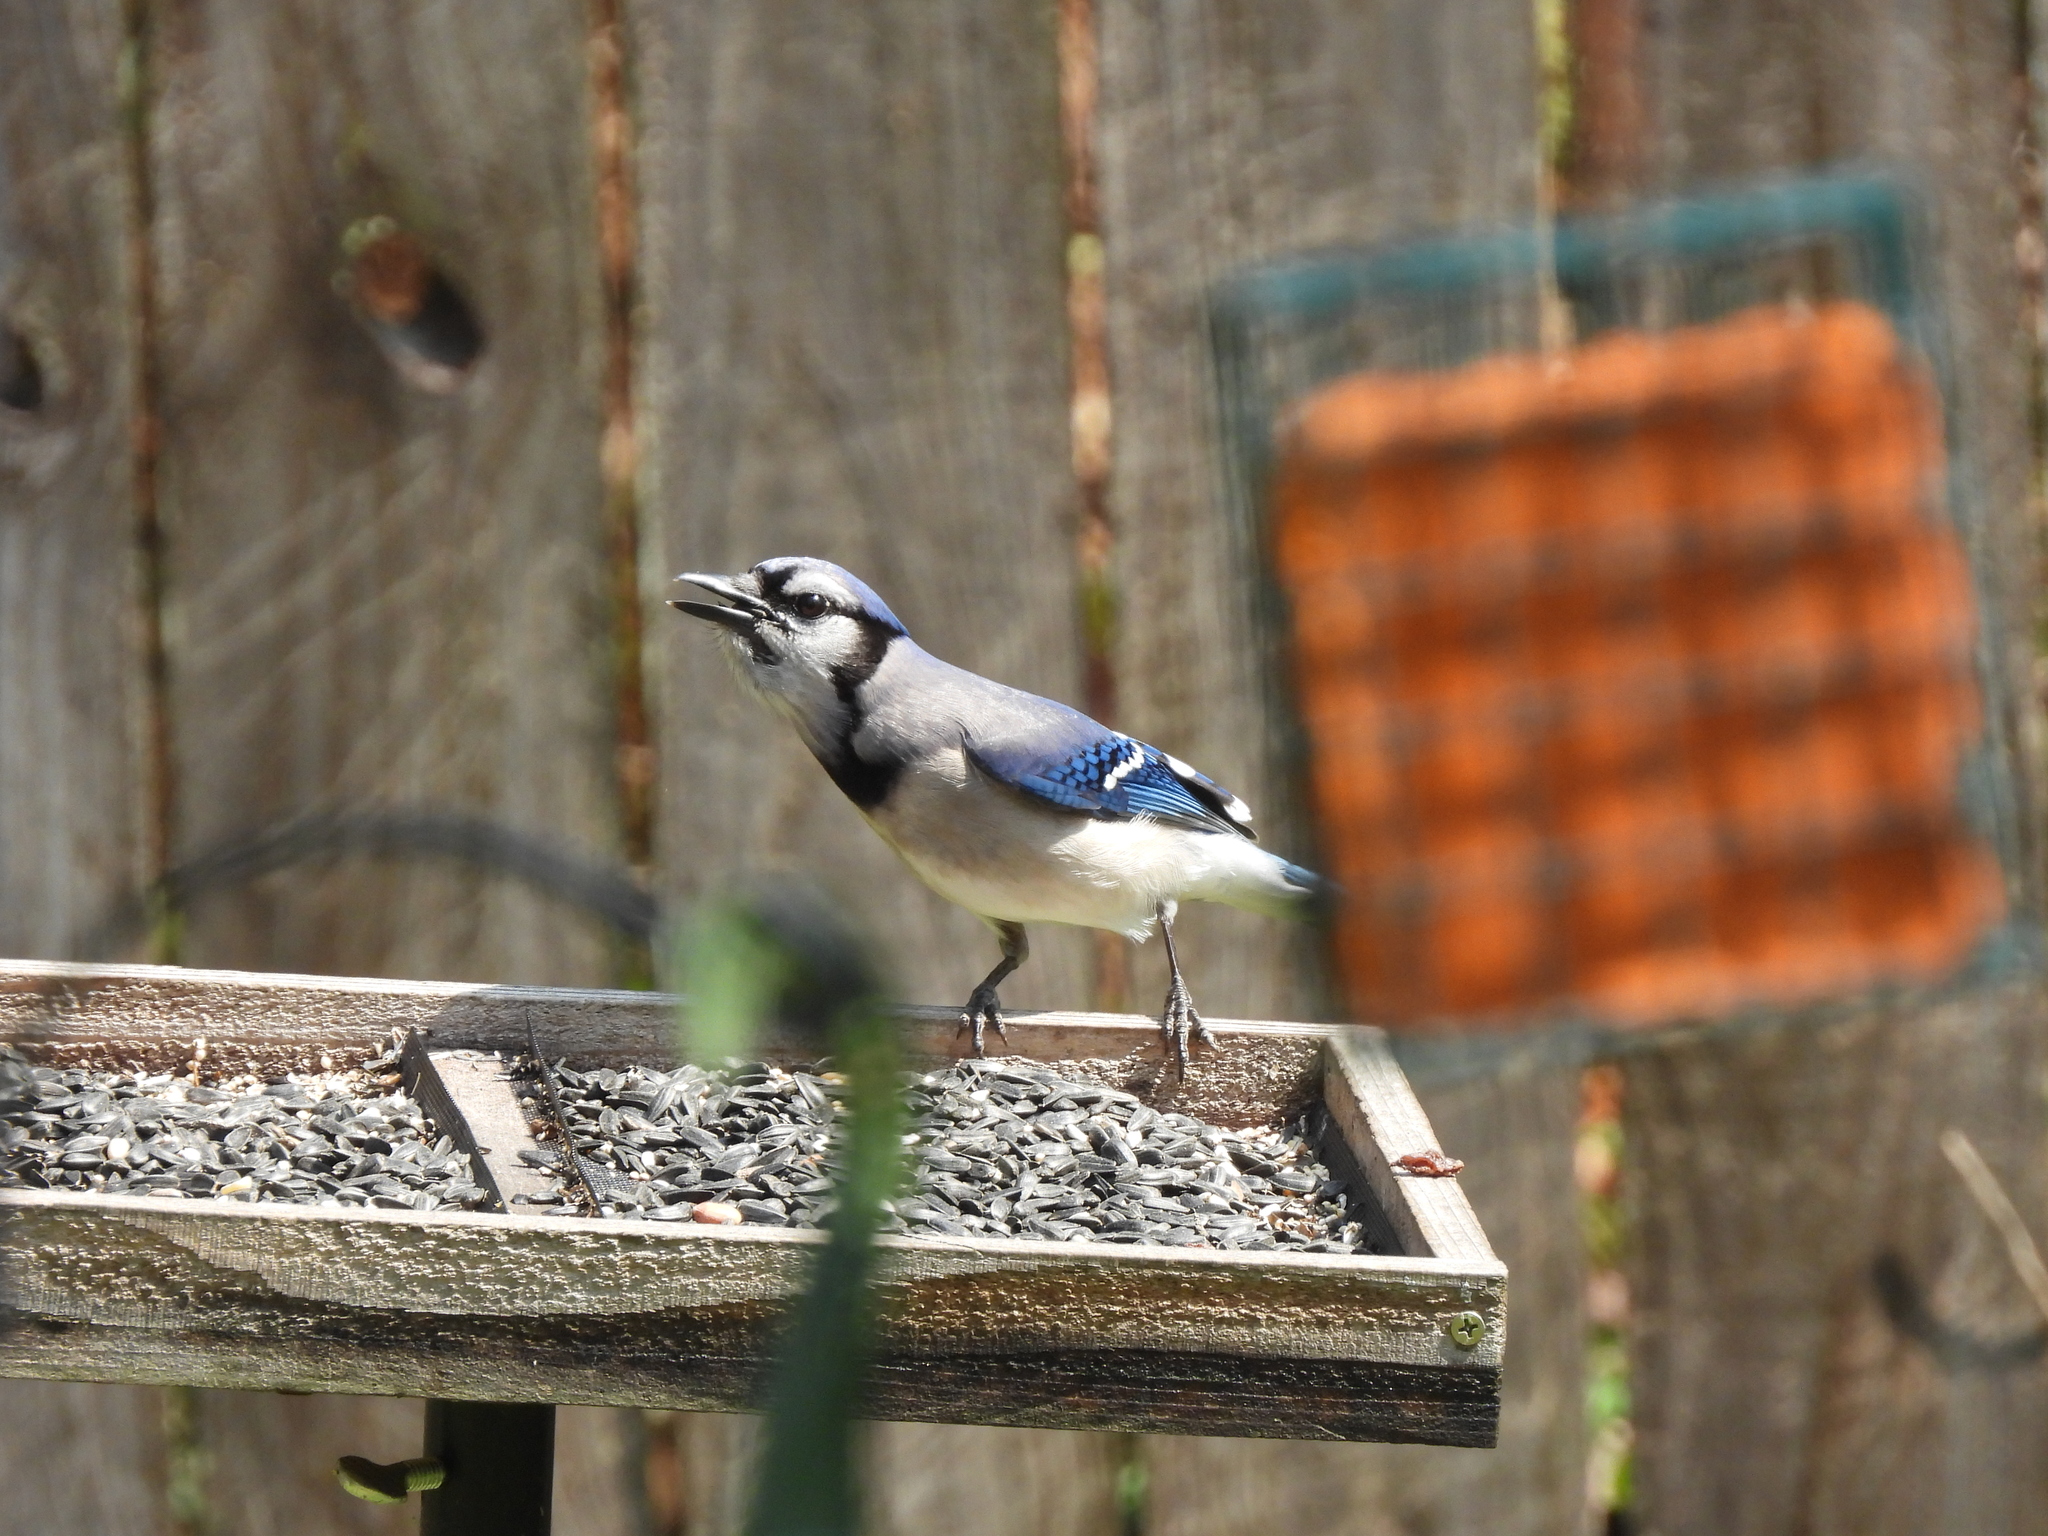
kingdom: Animalia
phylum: Chordata
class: Aves
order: Passeriformes
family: Corvidae
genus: Cyanocitta
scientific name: Cyanocitta cristata
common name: Blue jay
